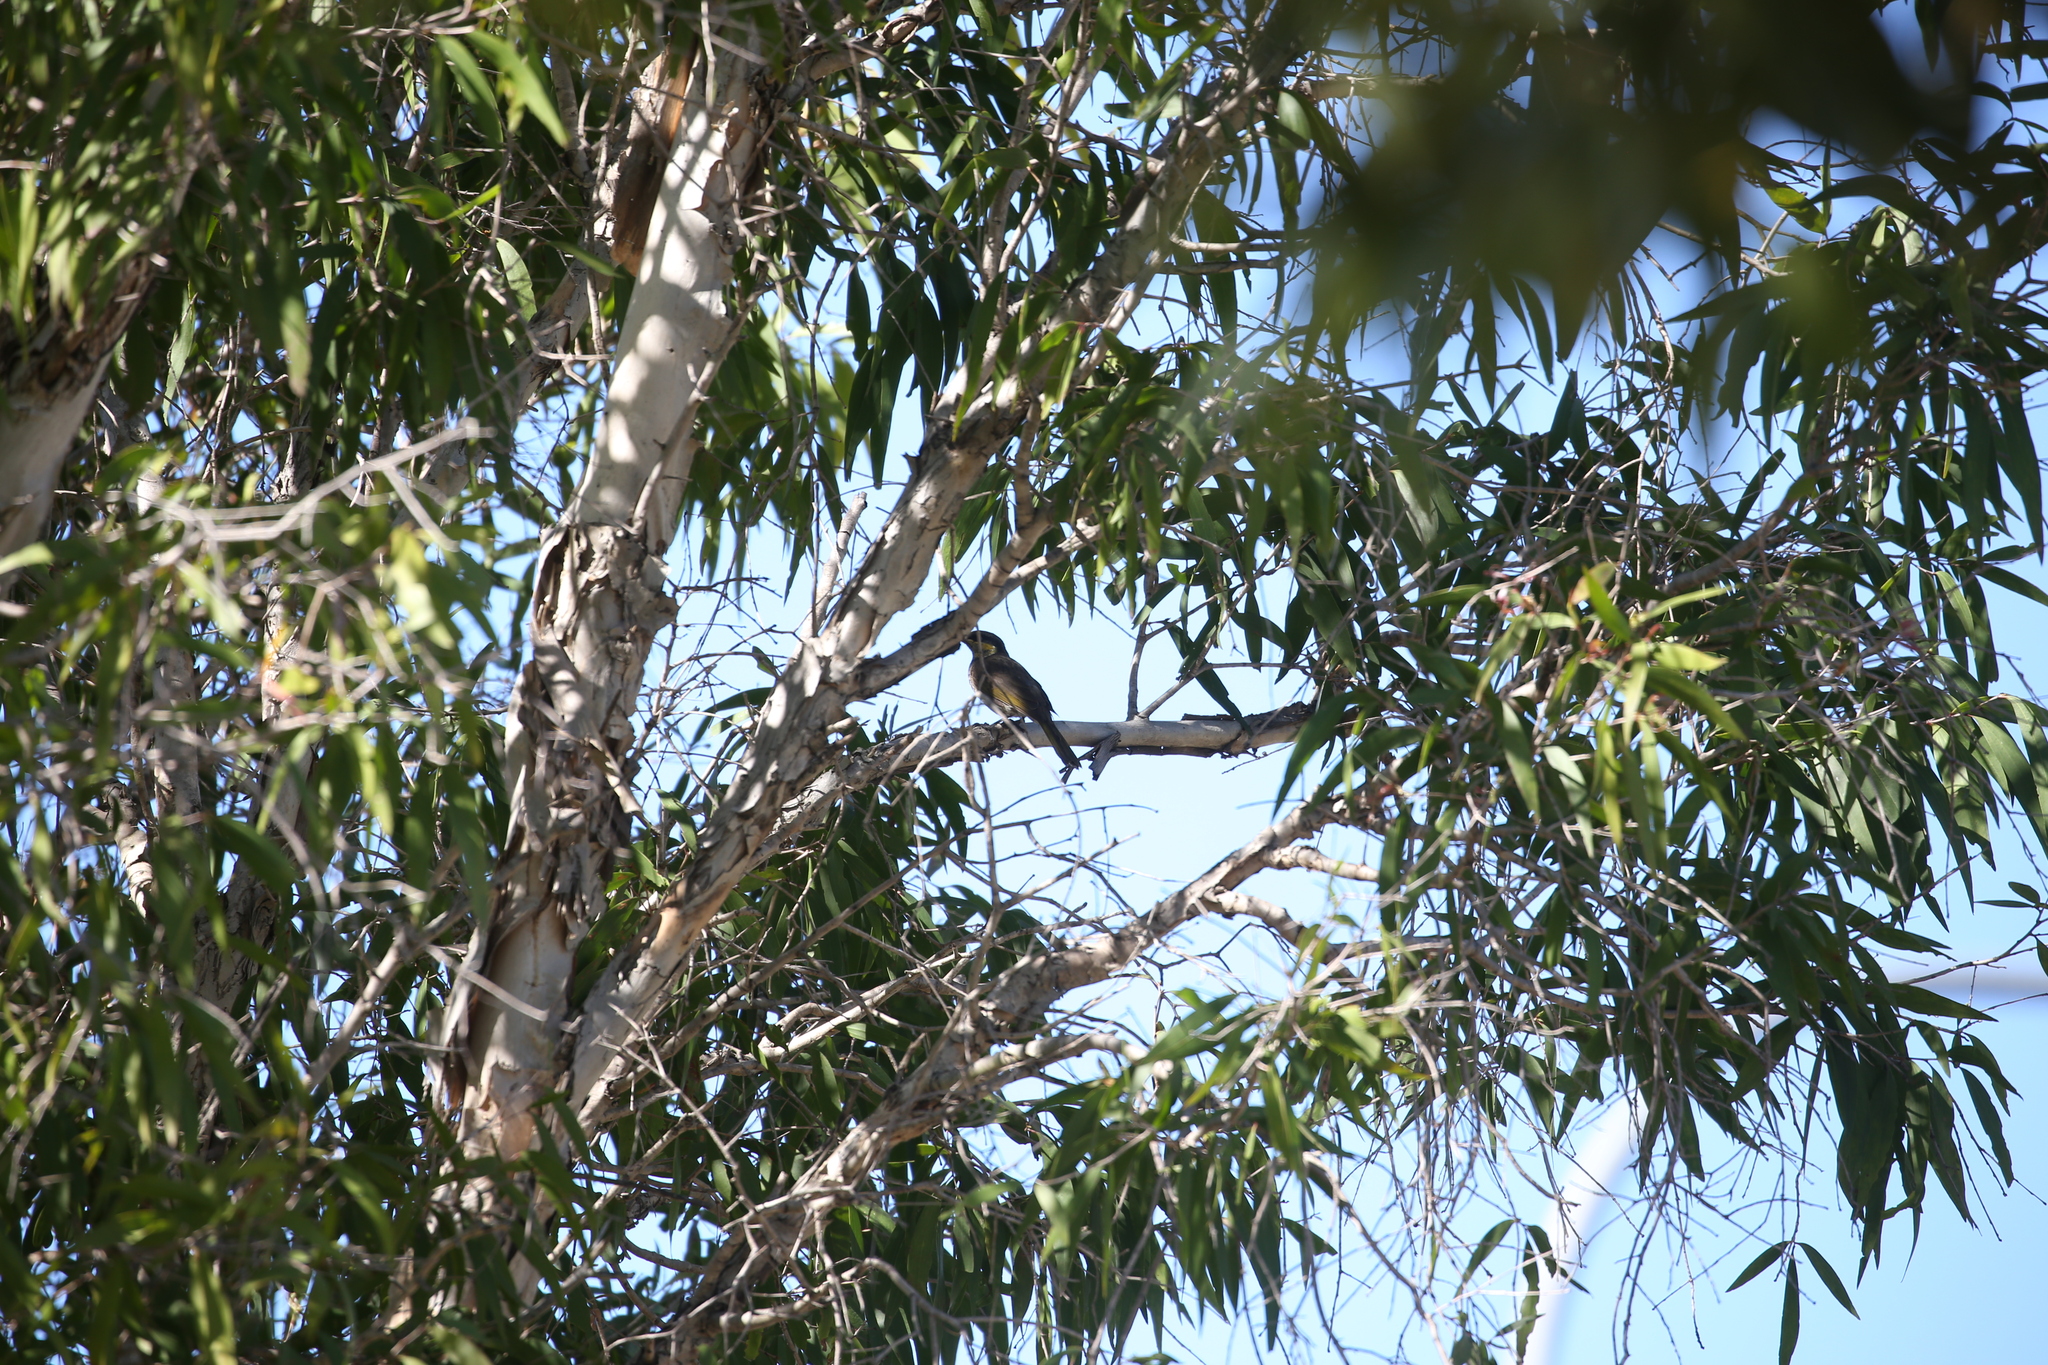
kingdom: Animalia
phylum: Chordata
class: Aves
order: Passeriformes
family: Meliphagidae
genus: Gavicalis
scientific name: Gavicalis fasciogularis
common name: Mangrove honeyeater
